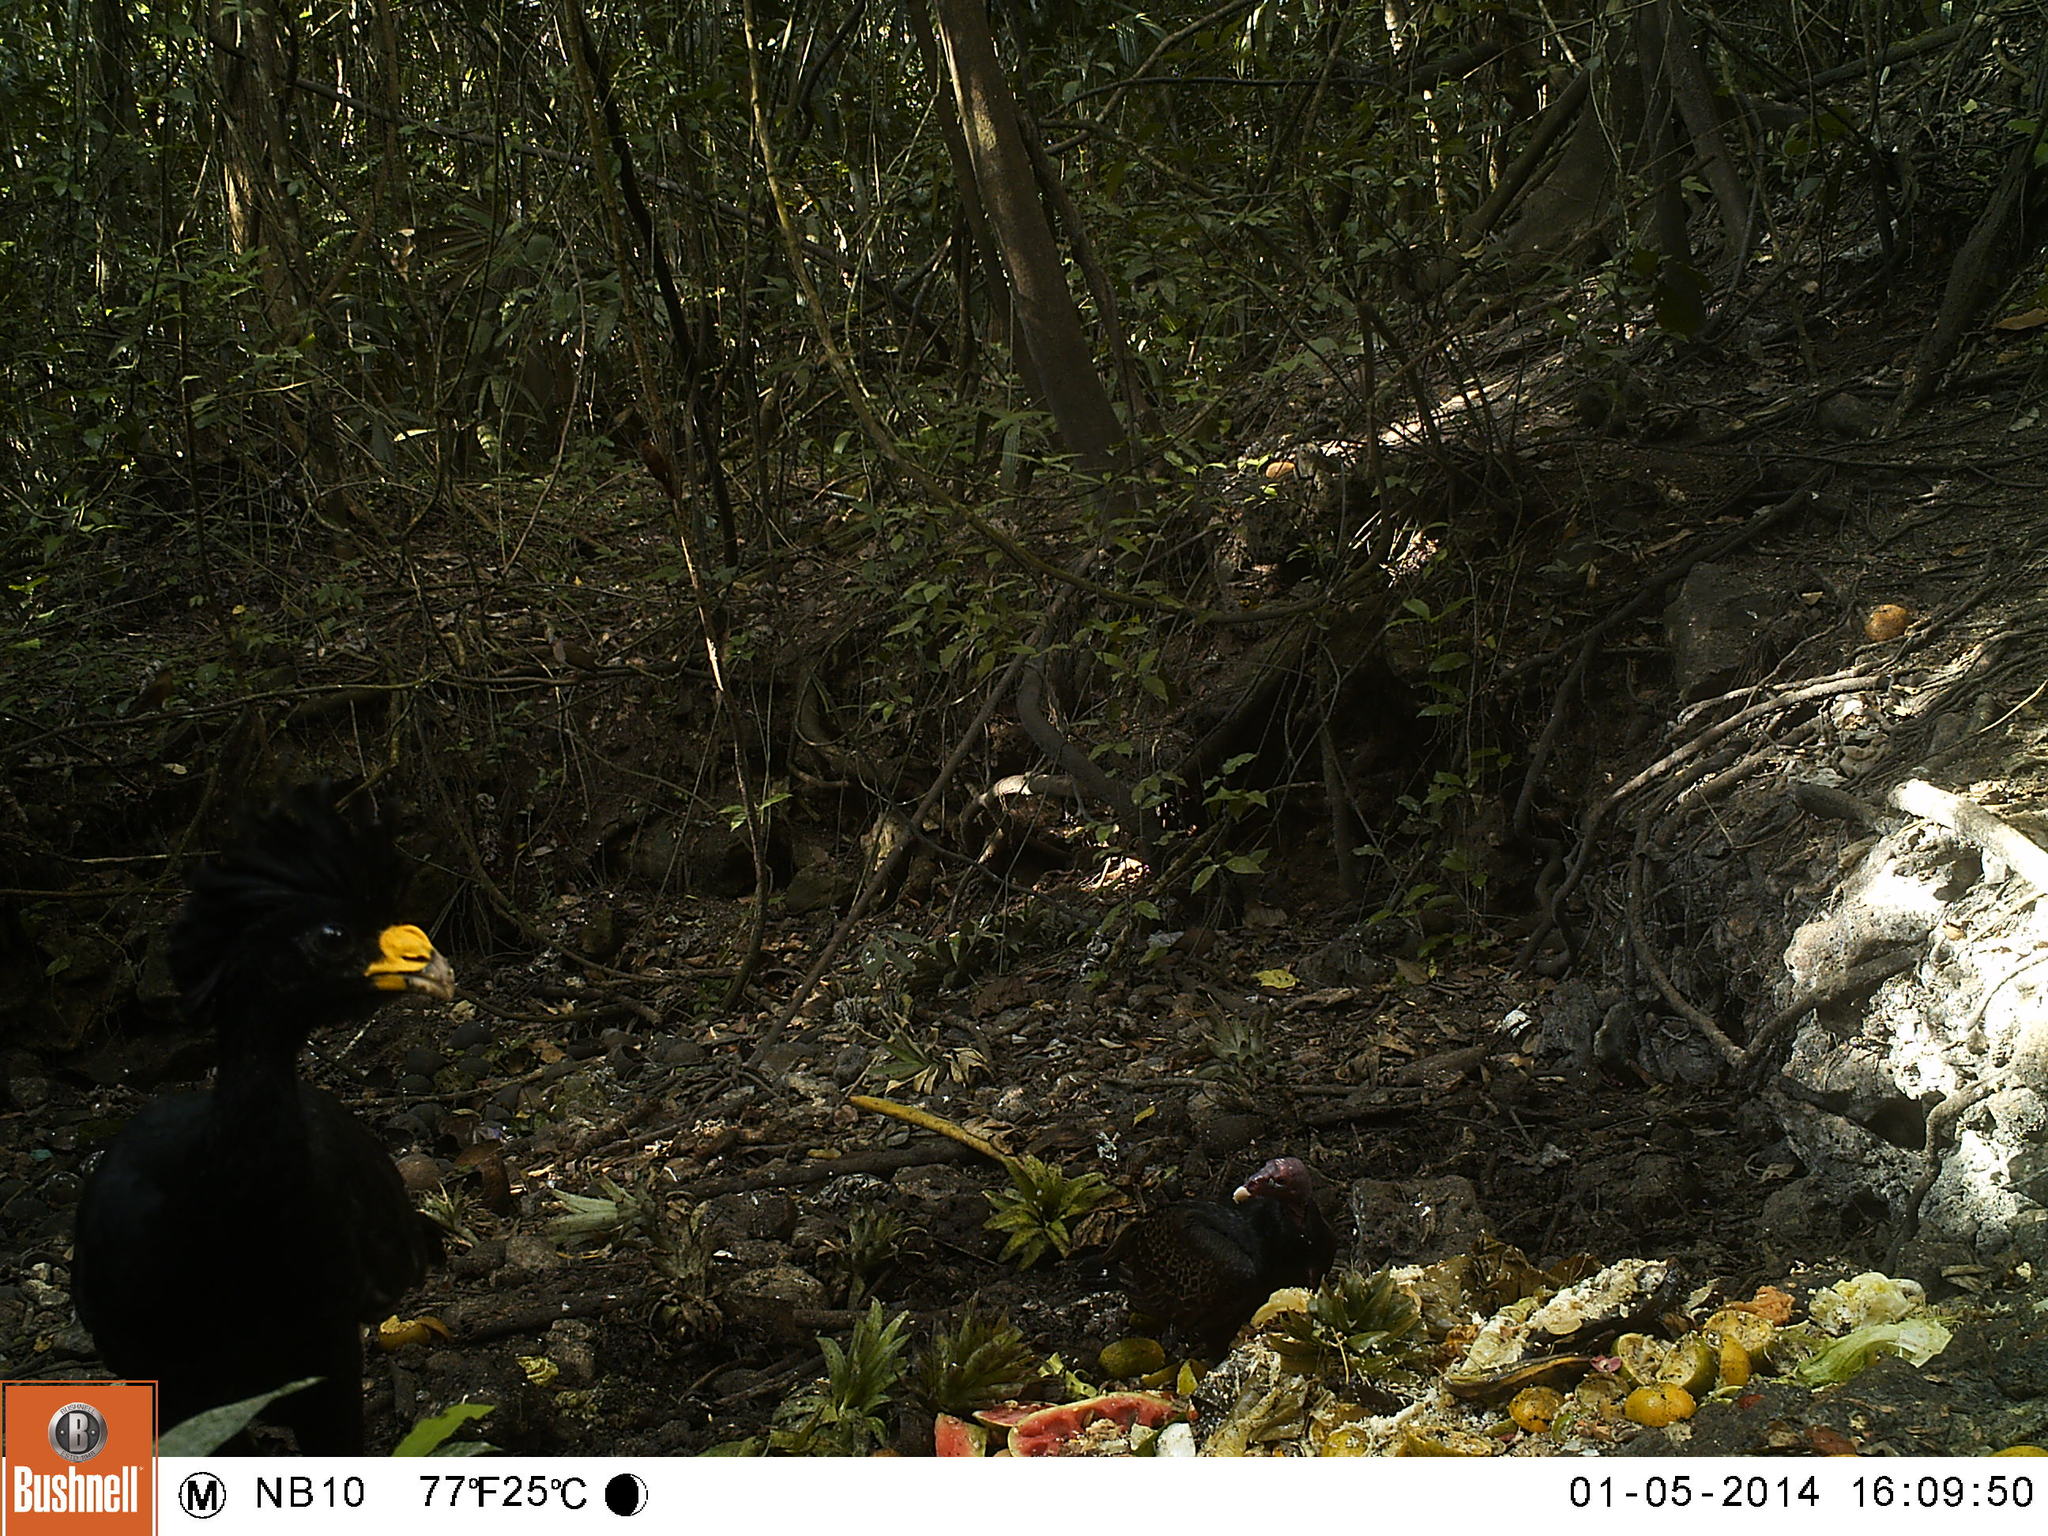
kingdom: Animalia
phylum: Chordata
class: Aves
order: Galliformes
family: Cracidae
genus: Crax
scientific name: Crax rubra
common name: Great curassow
